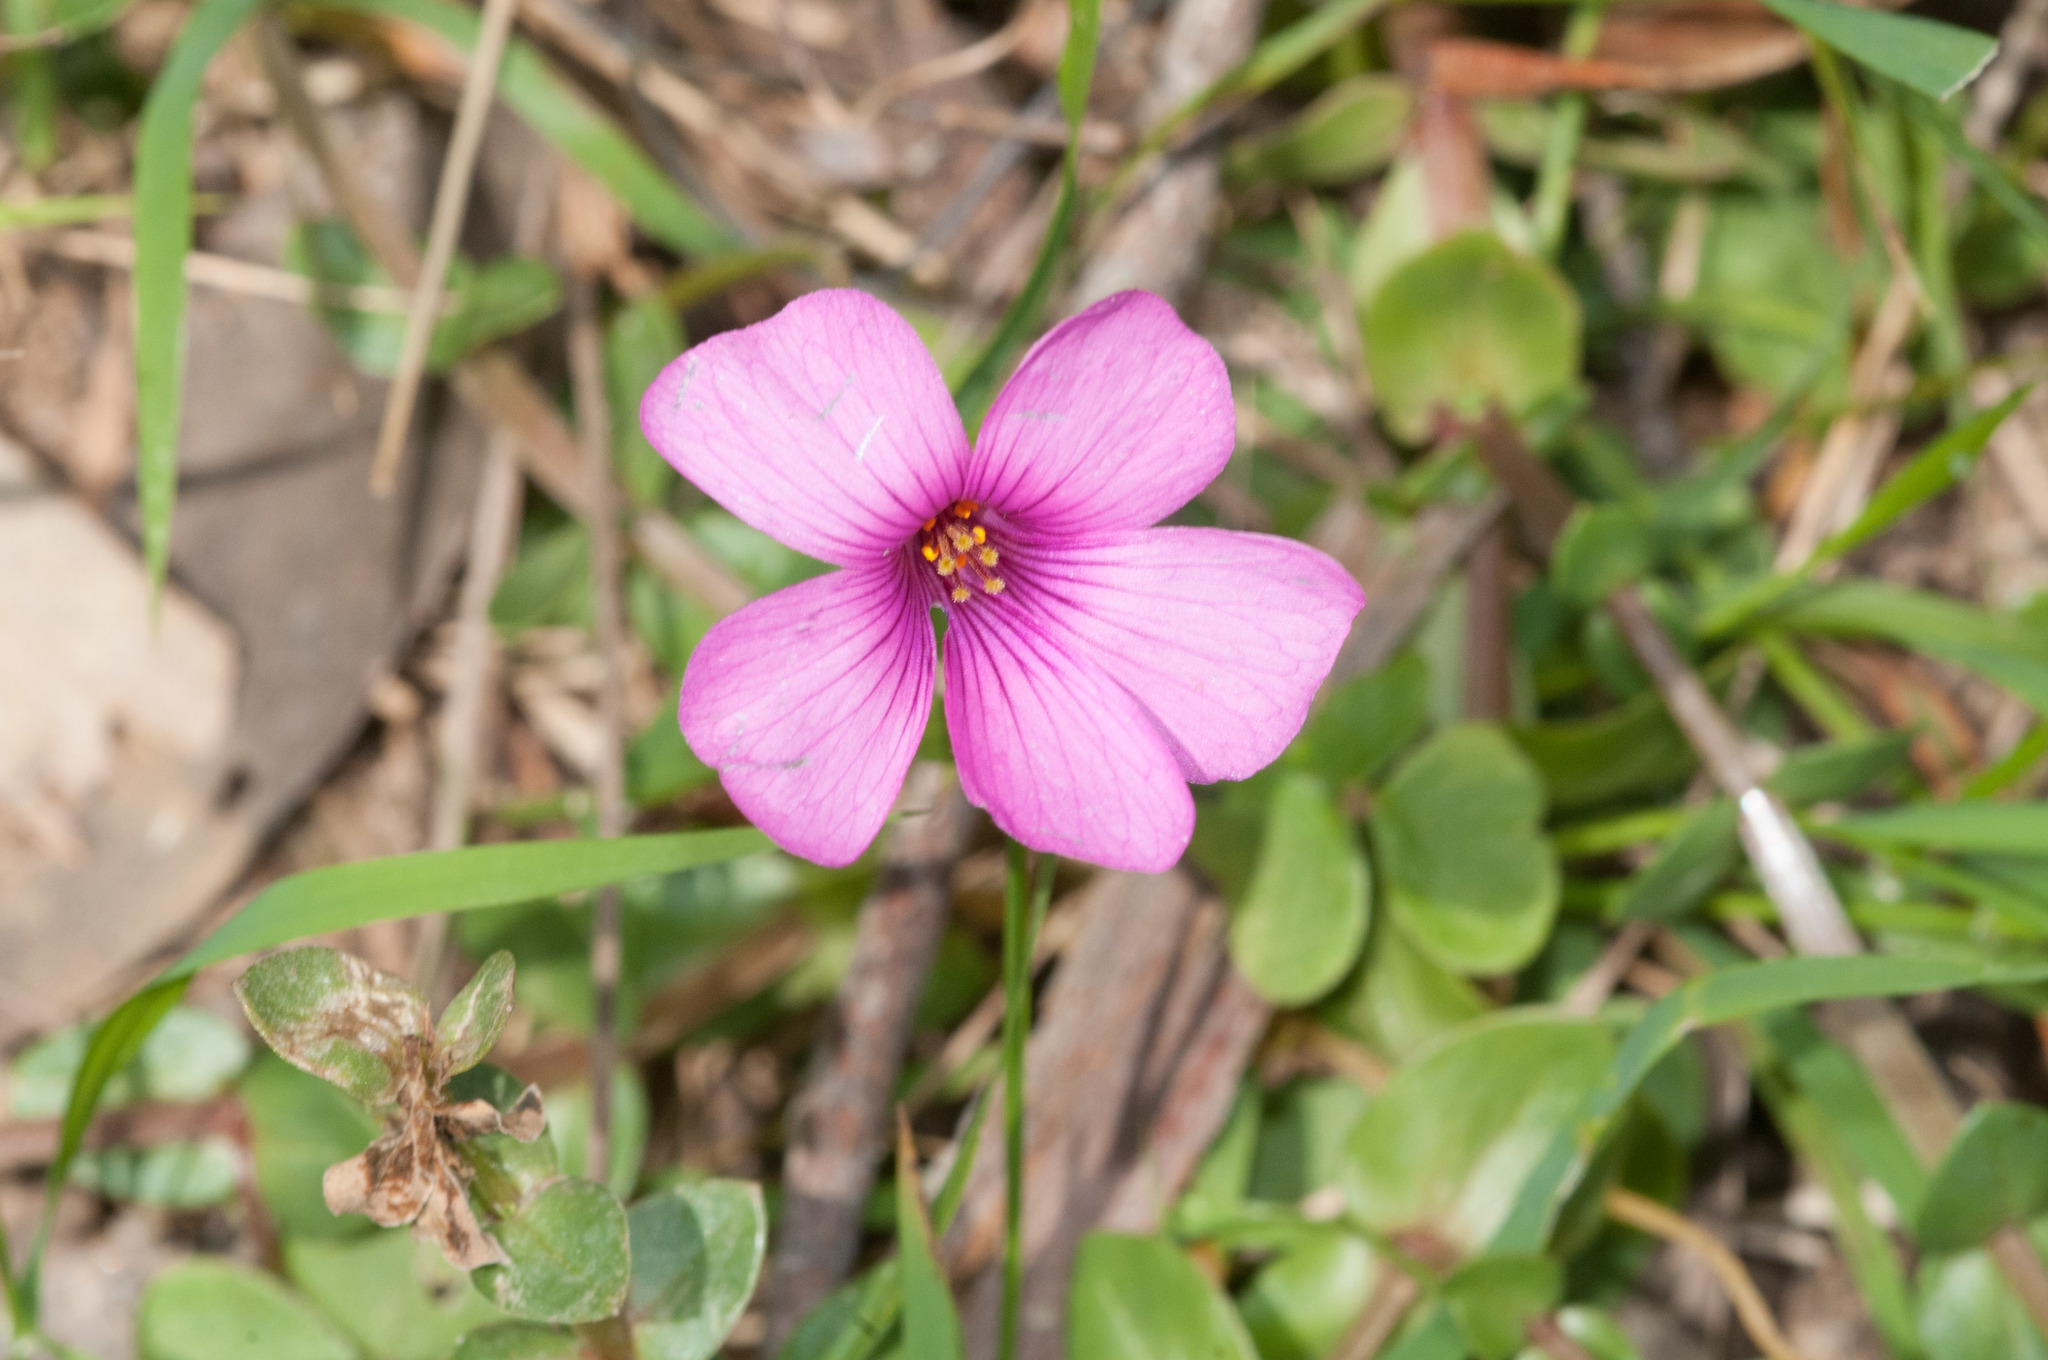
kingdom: Plantae
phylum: Tracheophyta
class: Magnoliopsida
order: Oxalidales
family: Oxalidaceae
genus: Oxalis
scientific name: Oxalis brasiliensis
